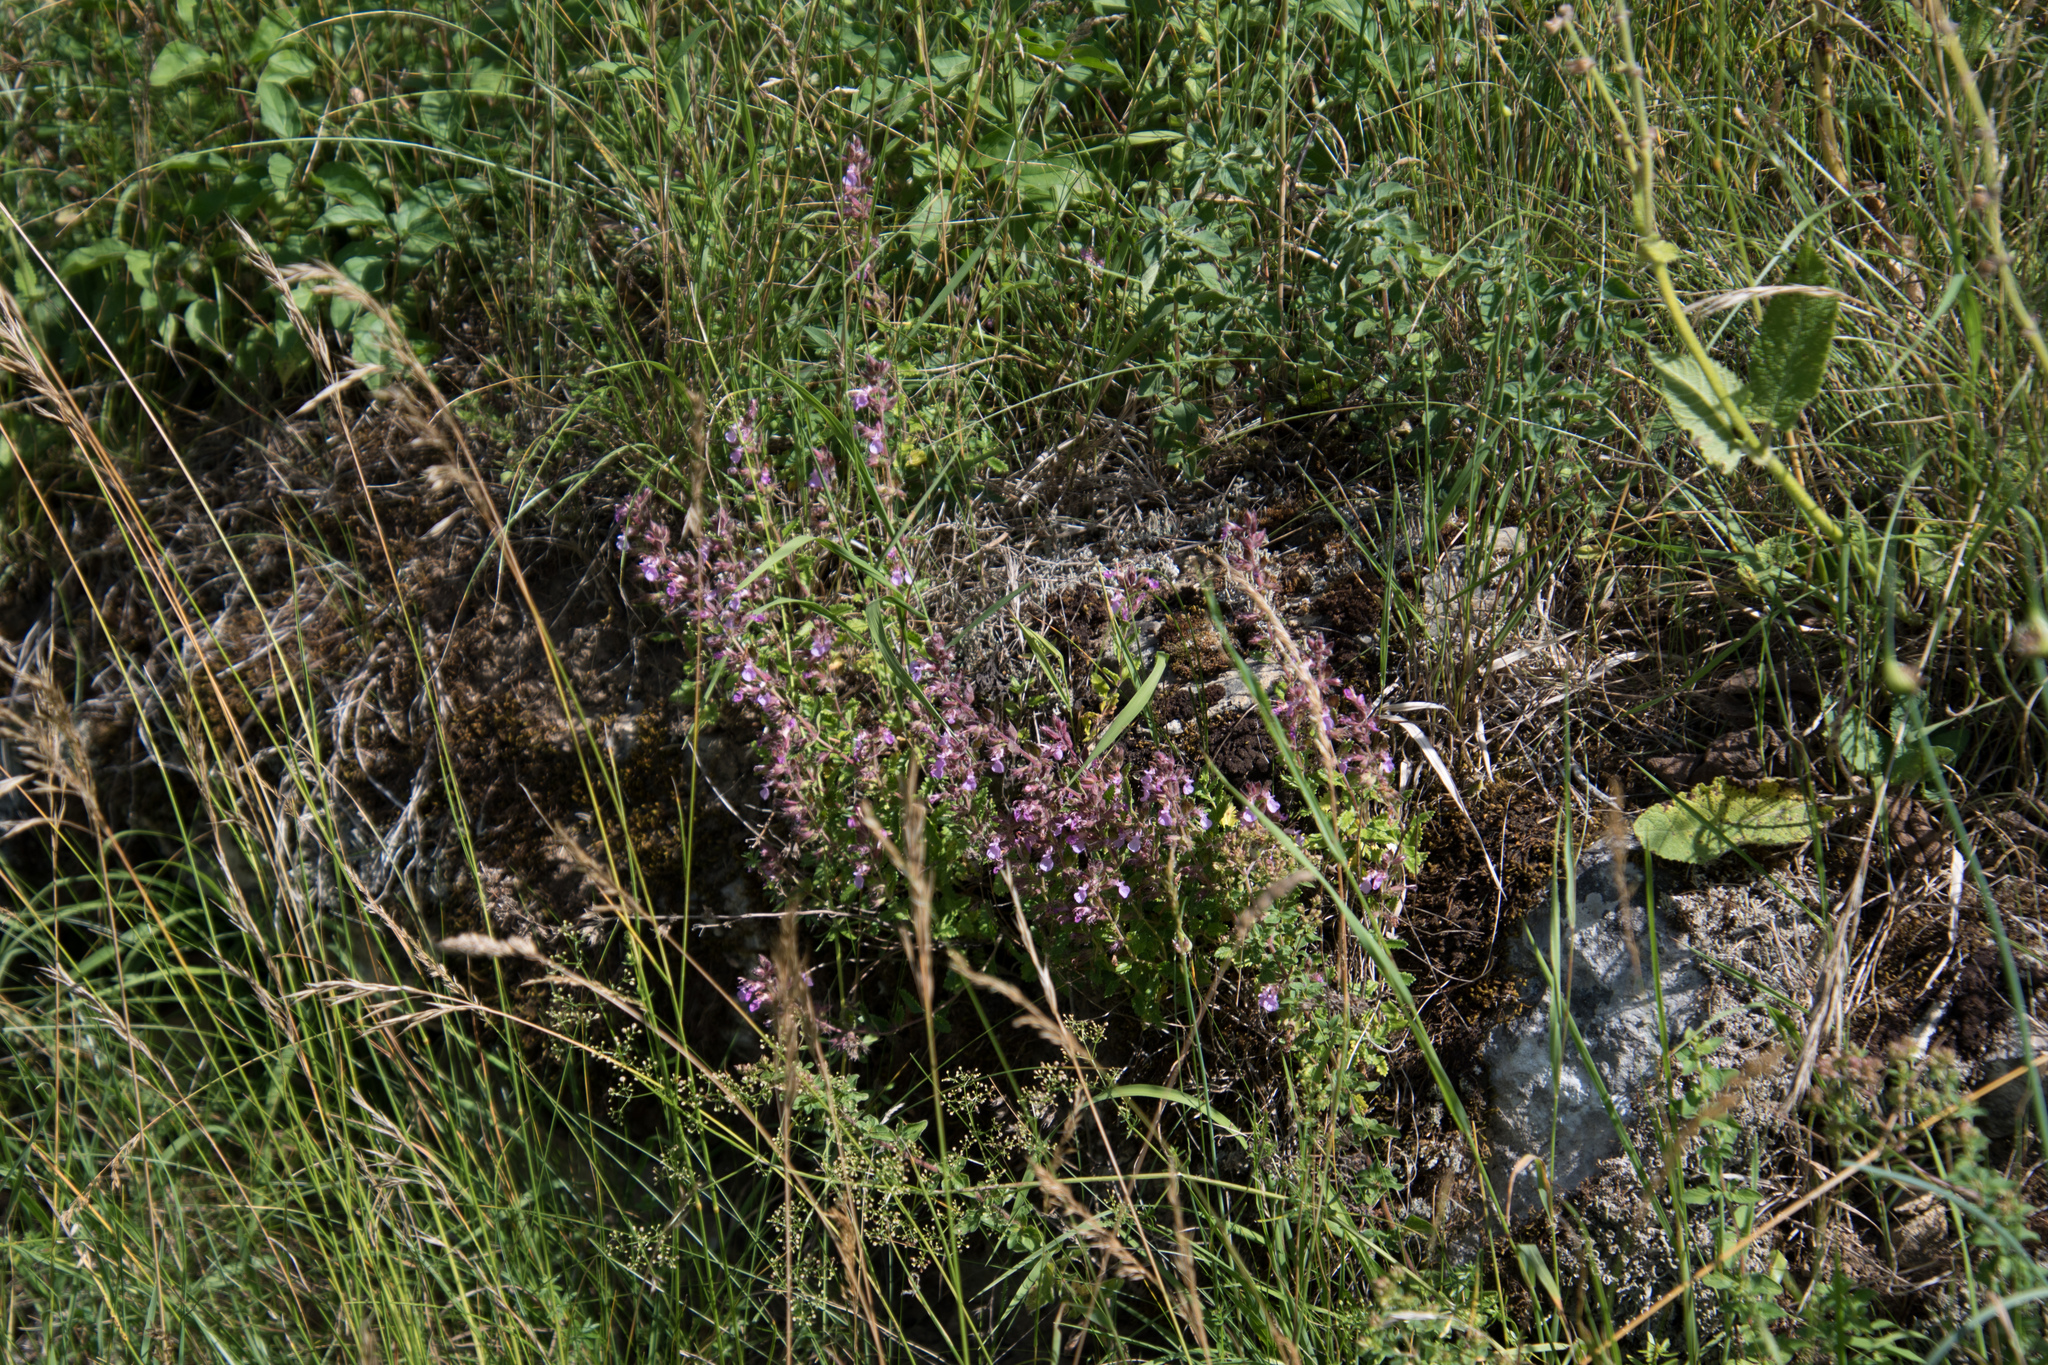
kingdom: Plantae
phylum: Tracheophyta
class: Magnoliopsida
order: Lamiales
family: Lamiaceae
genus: Teucrium
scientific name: Teucrium chamaedrys
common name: Wall germander
